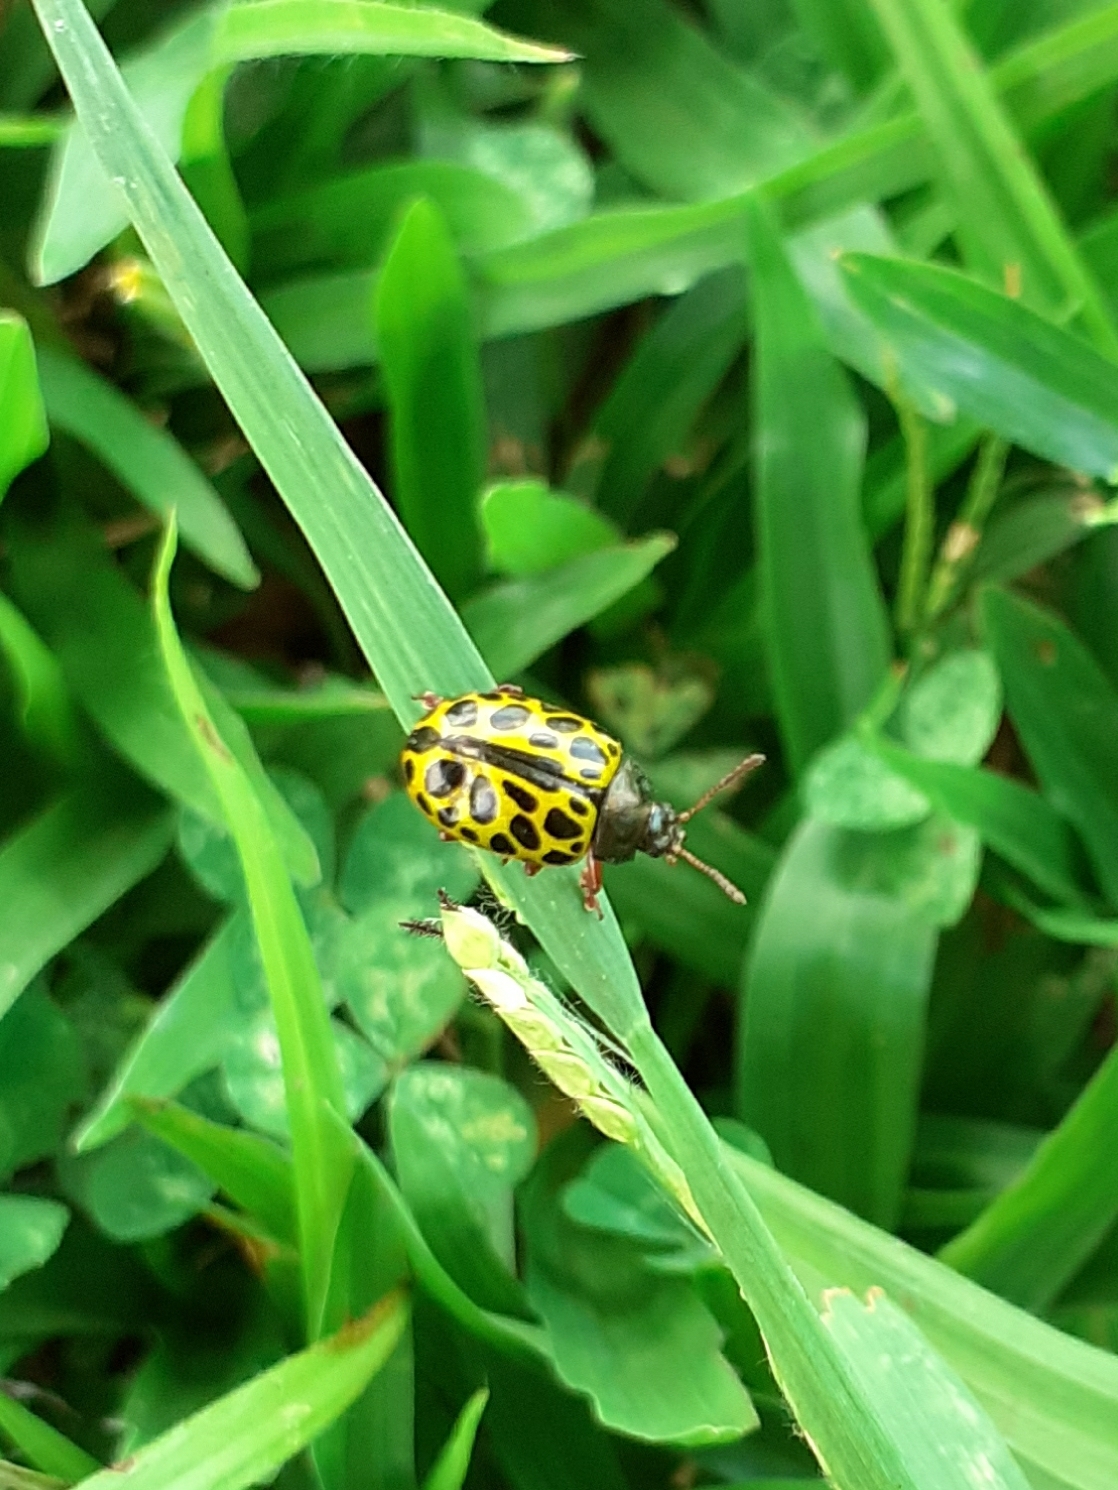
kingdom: Animalia
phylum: Arthropoda
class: Insecta
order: Coleoptera
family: Chrysomelidae
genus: Calligrapha
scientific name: Calligrapha polyspila
